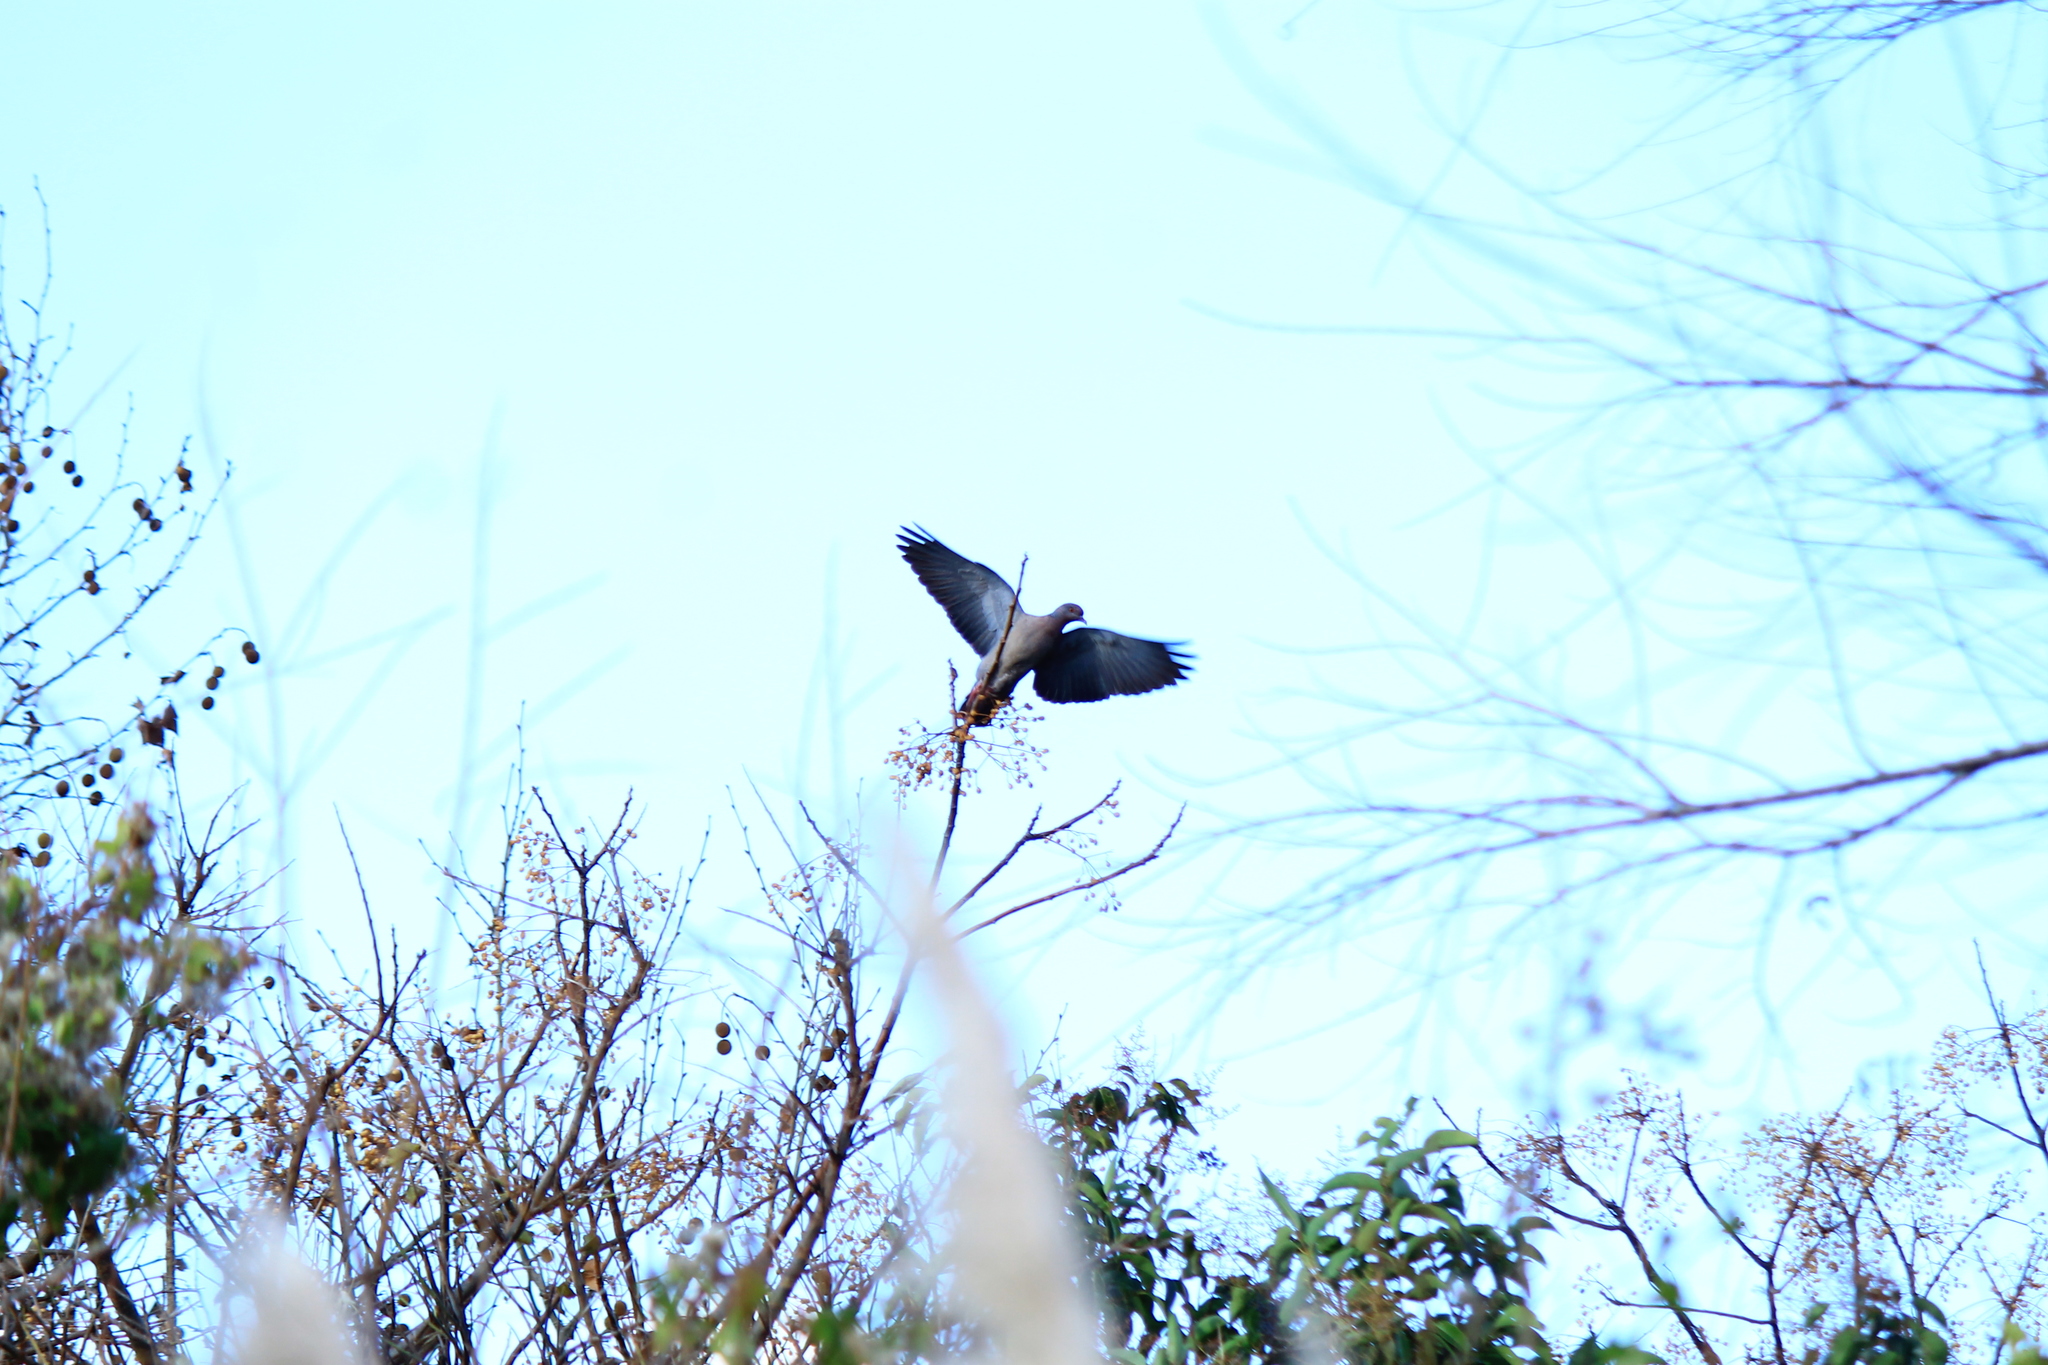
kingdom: Animalia
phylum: Chordata
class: Aves
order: Columbiformes
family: Columbidae
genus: Patagioenas
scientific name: Patagioenas picazuro
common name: Picazuro pigeon
